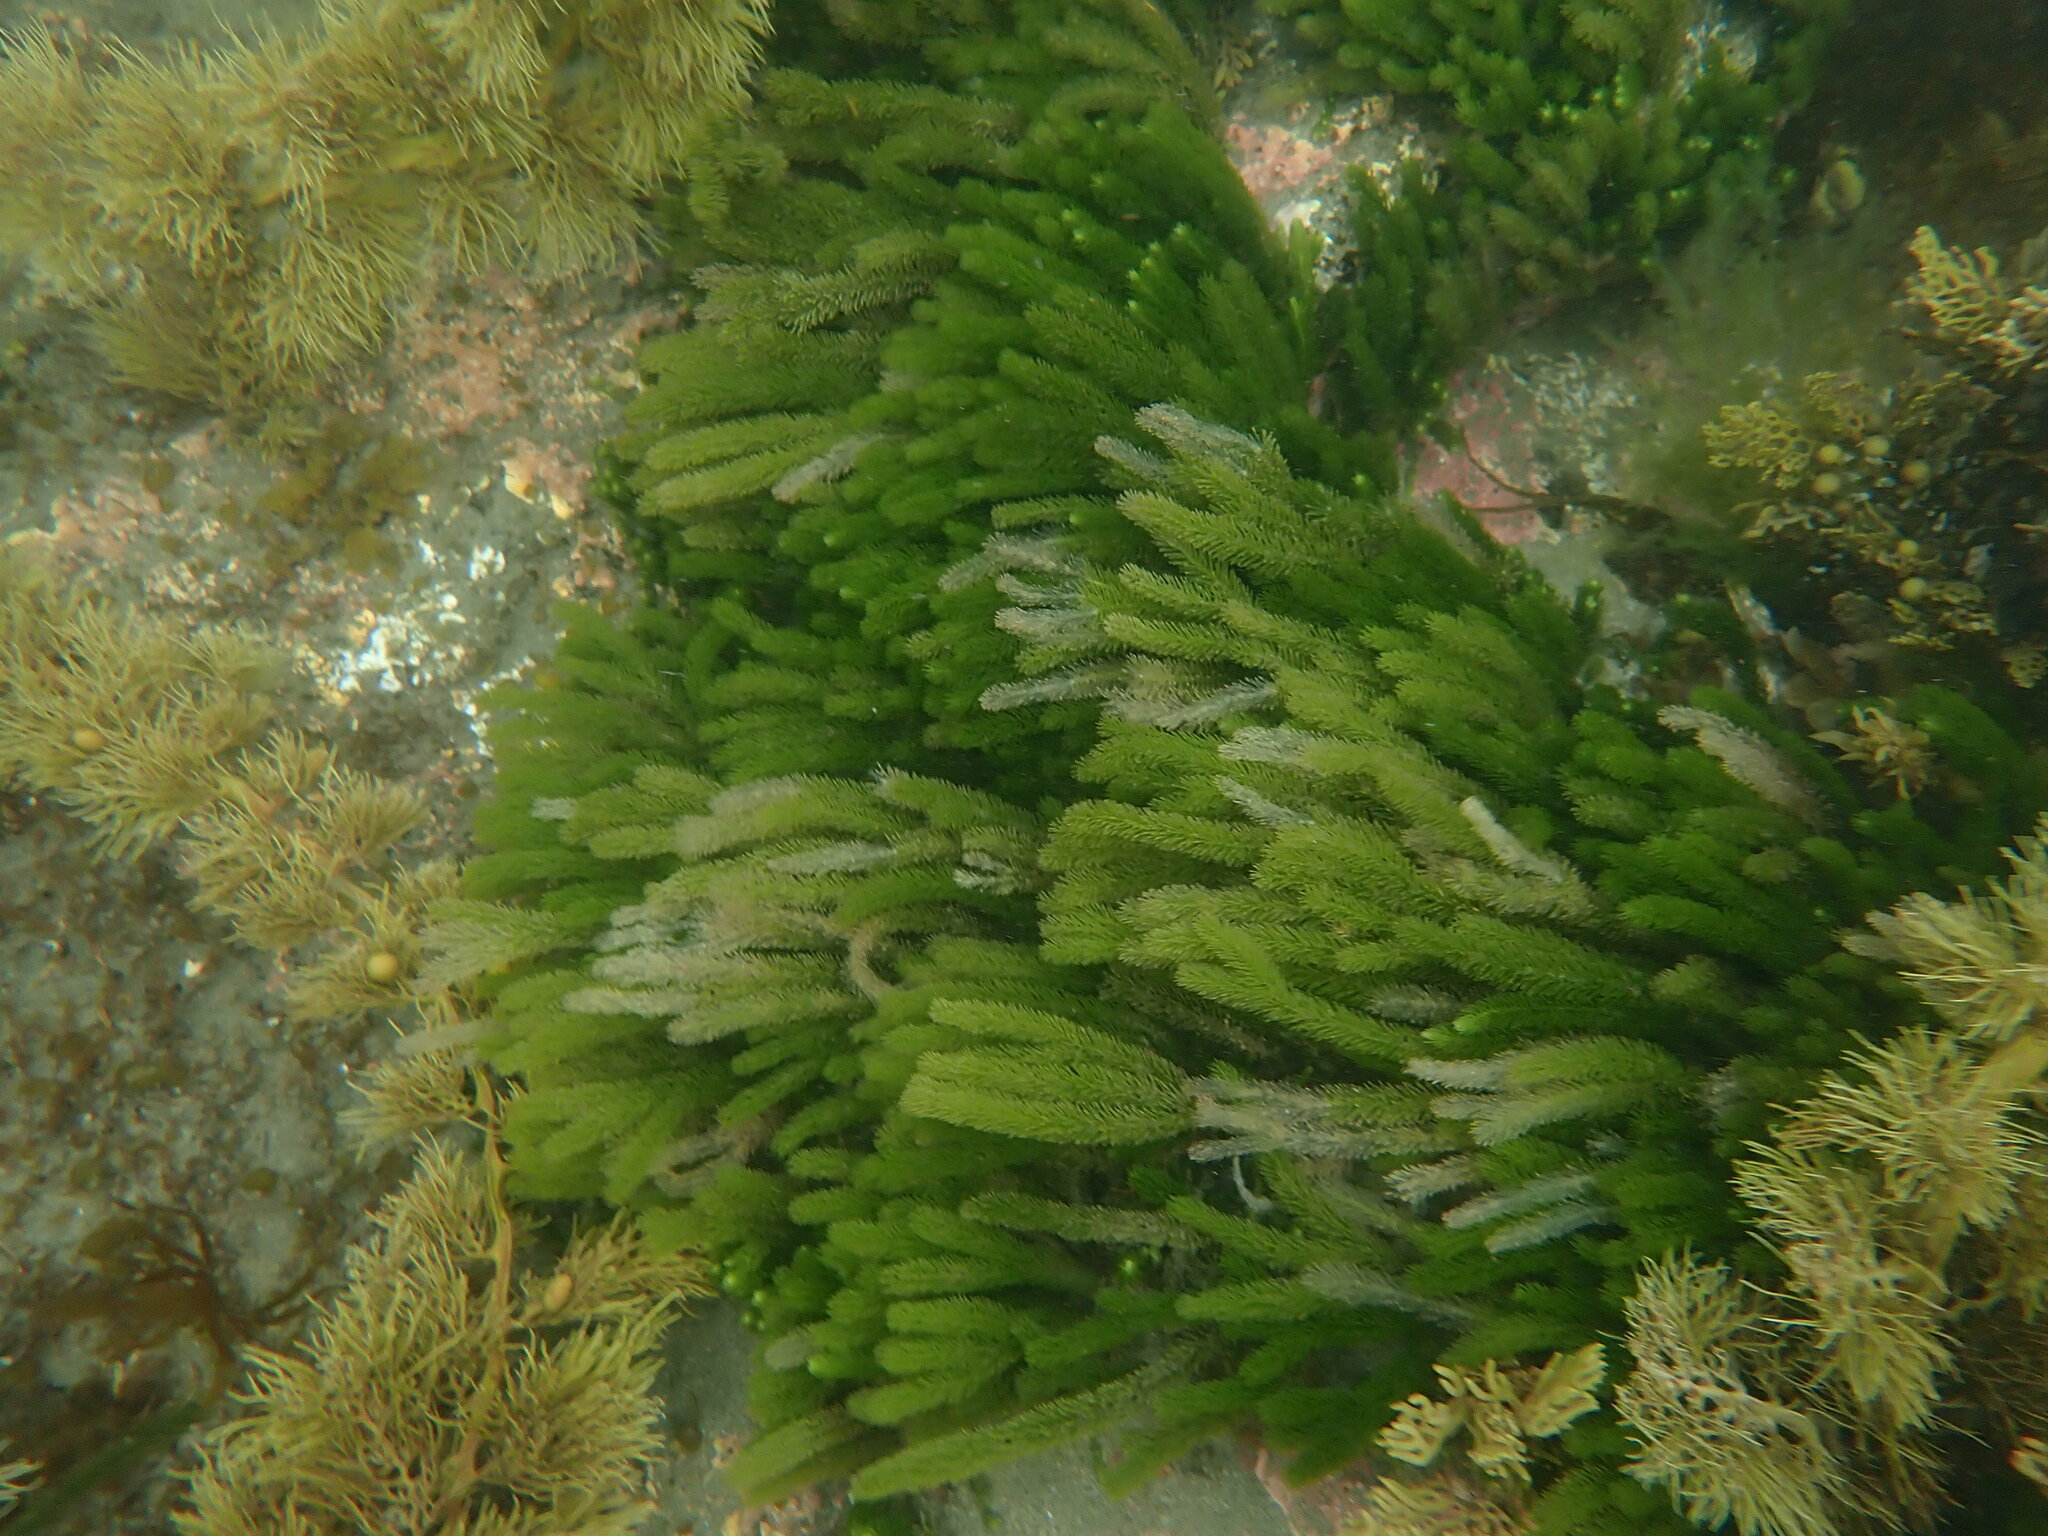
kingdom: Plantae
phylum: Chlorophyta
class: Ulvophyceae
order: Bryopsidales
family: Caulerpaceae
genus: Caulerpa
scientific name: Caulerpa brownii
